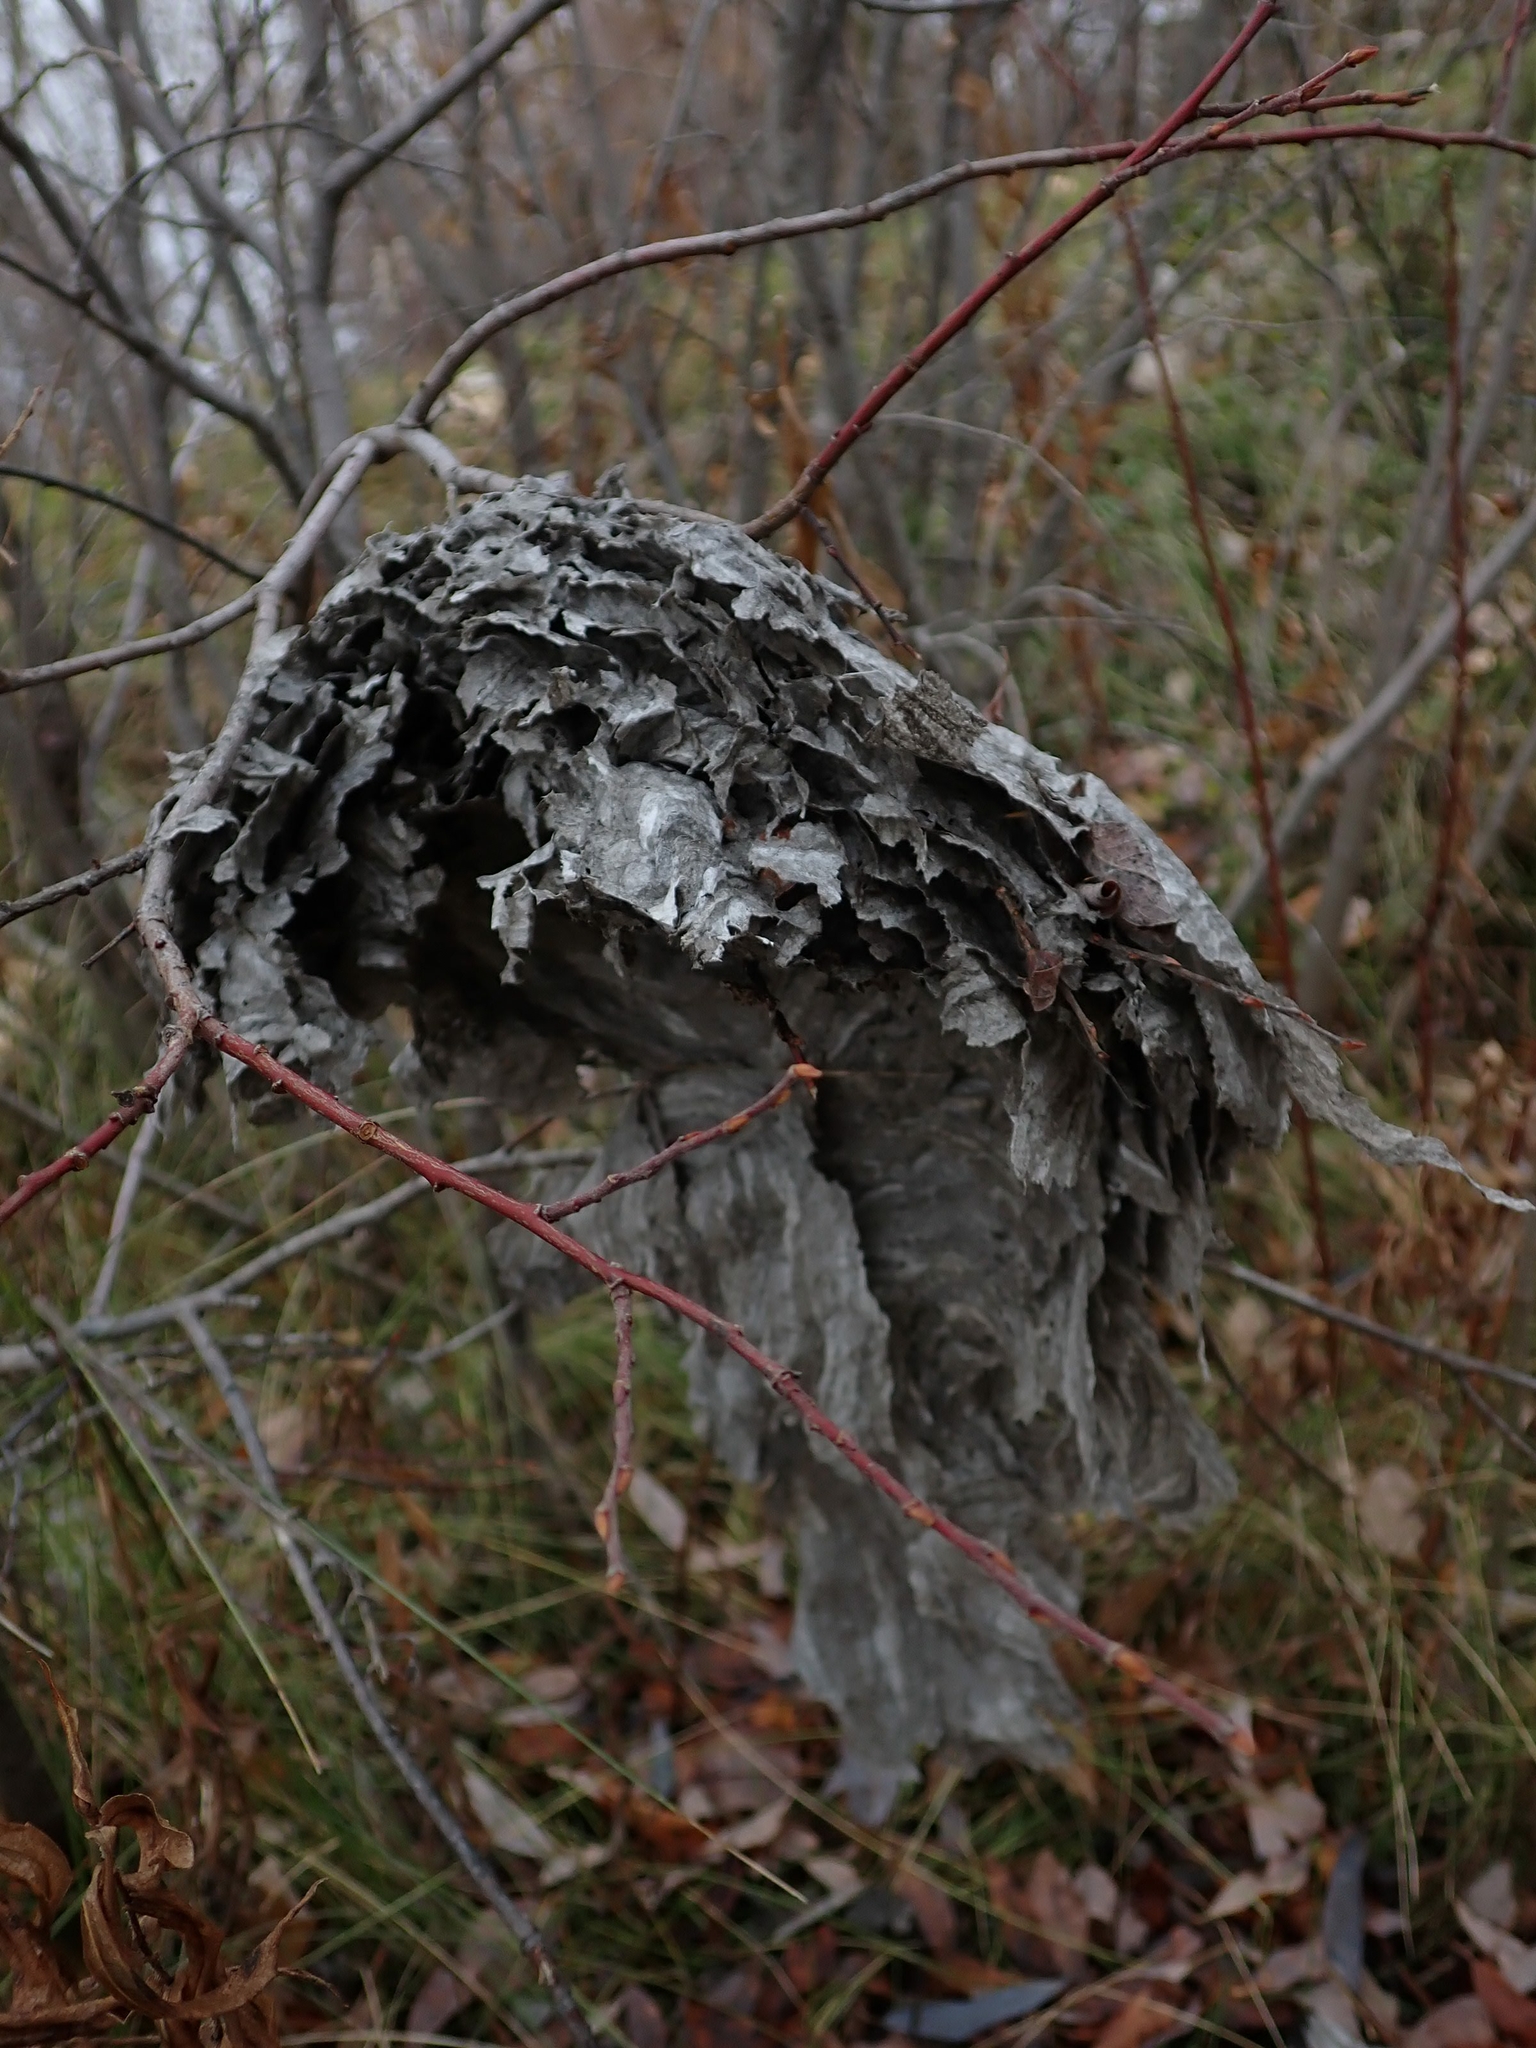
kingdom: Animalia
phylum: Arthropoda
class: Insecta
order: Hymenoptera
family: Vespidae
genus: Dolichovespula
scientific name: Dolichovespula
